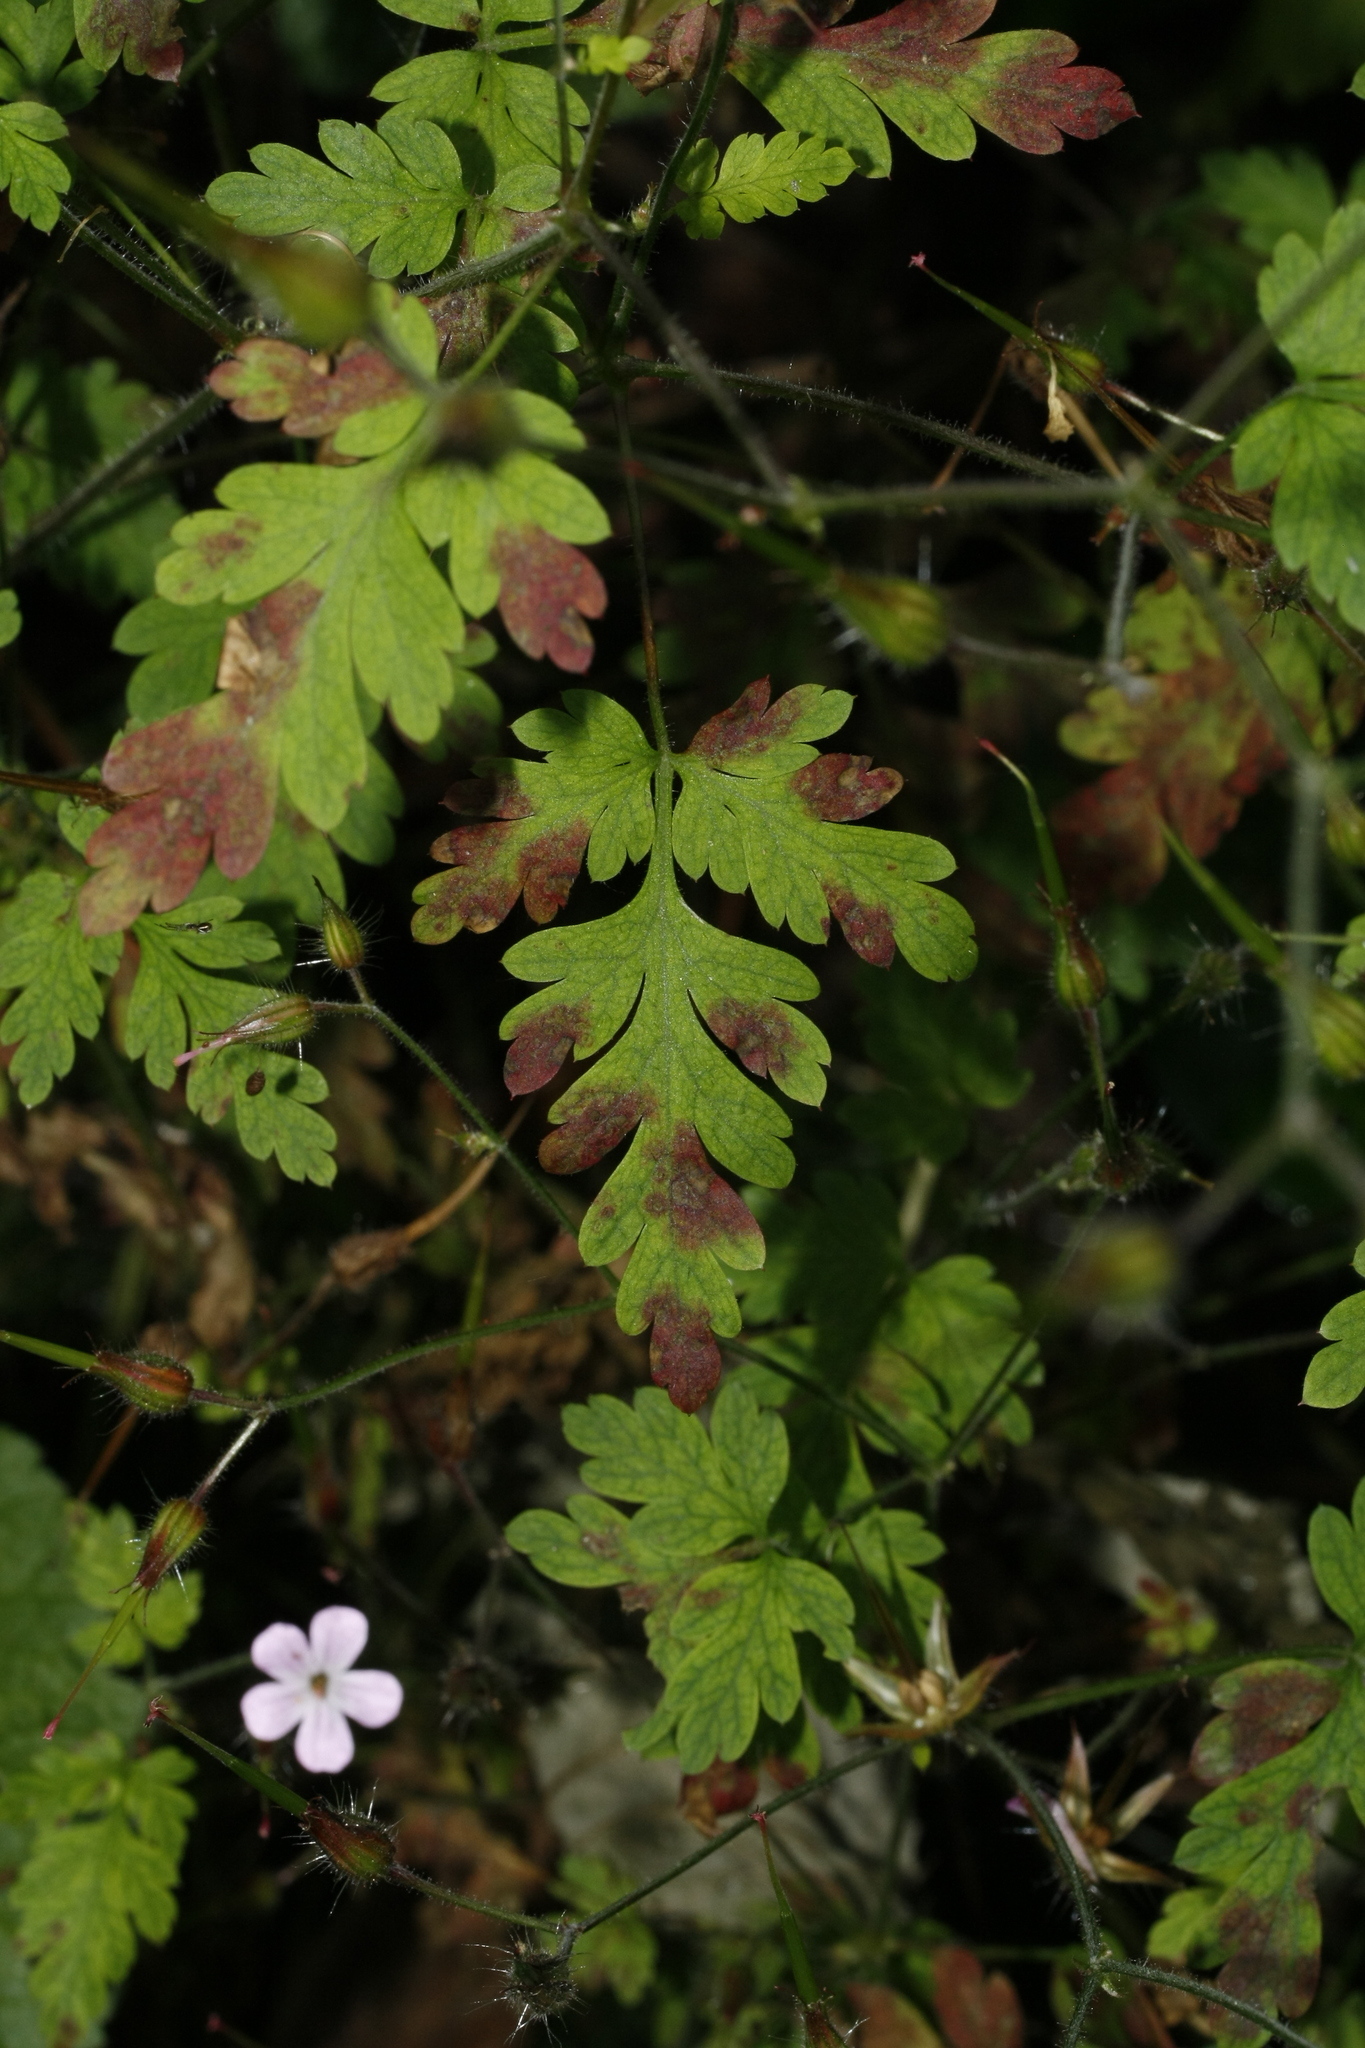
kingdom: Plantae
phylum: Tracheophyta
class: Magnoliopsida
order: Geraniales
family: Geraniaceae
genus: Geranium
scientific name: Geranium robertianum
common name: Herb-robert
